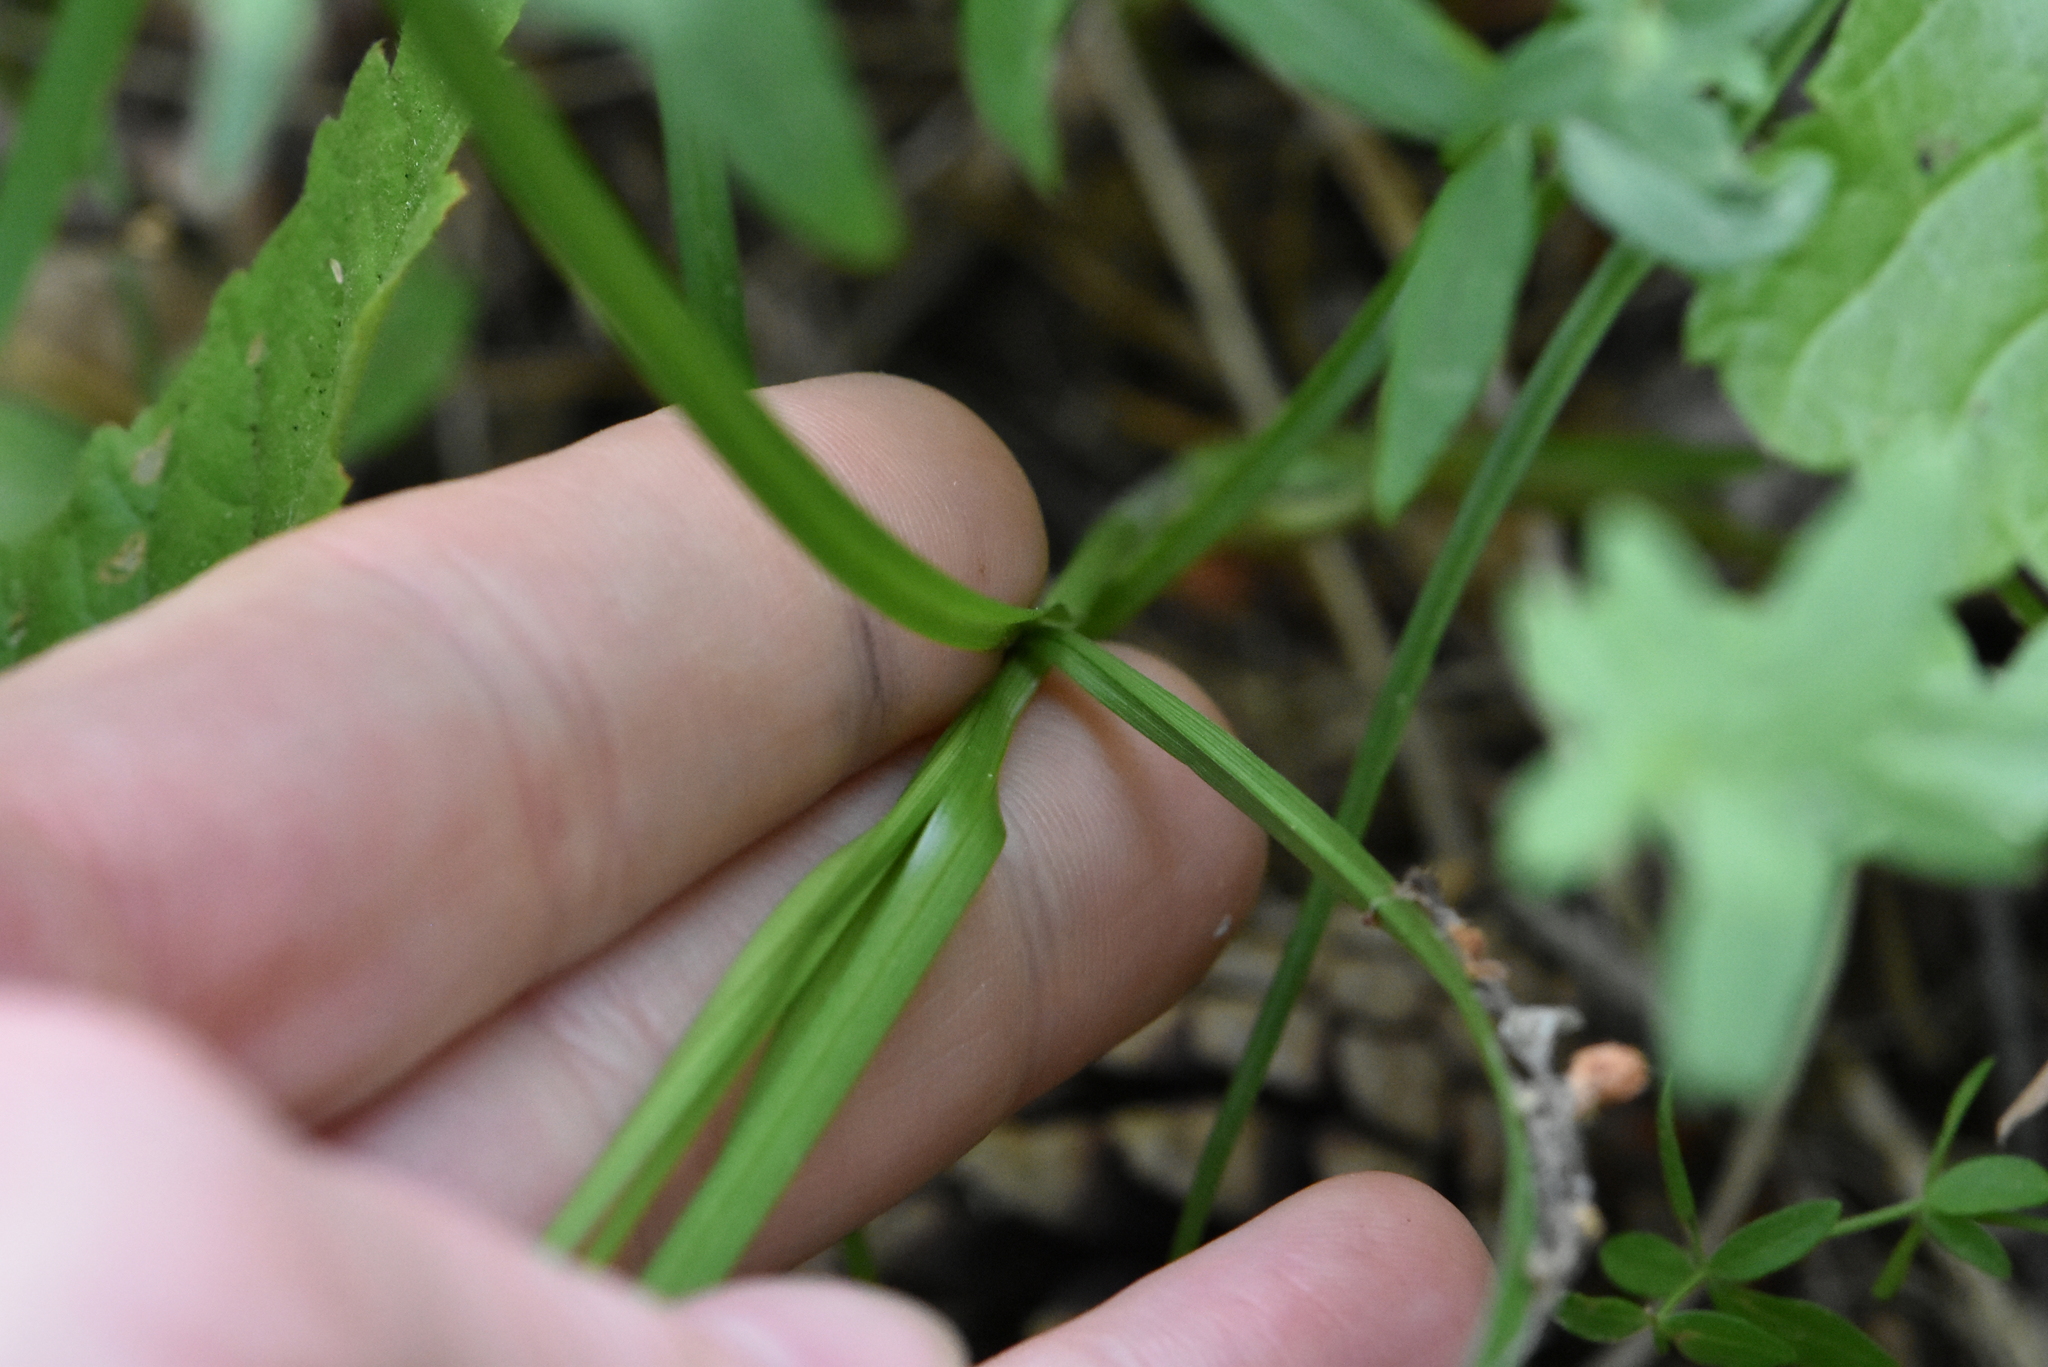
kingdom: Plantae
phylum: Tracheophyta
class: Liliopsida
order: Poales
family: Cyperaceae
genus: Carex
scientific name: Carex spicata
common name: Spiked sedge
